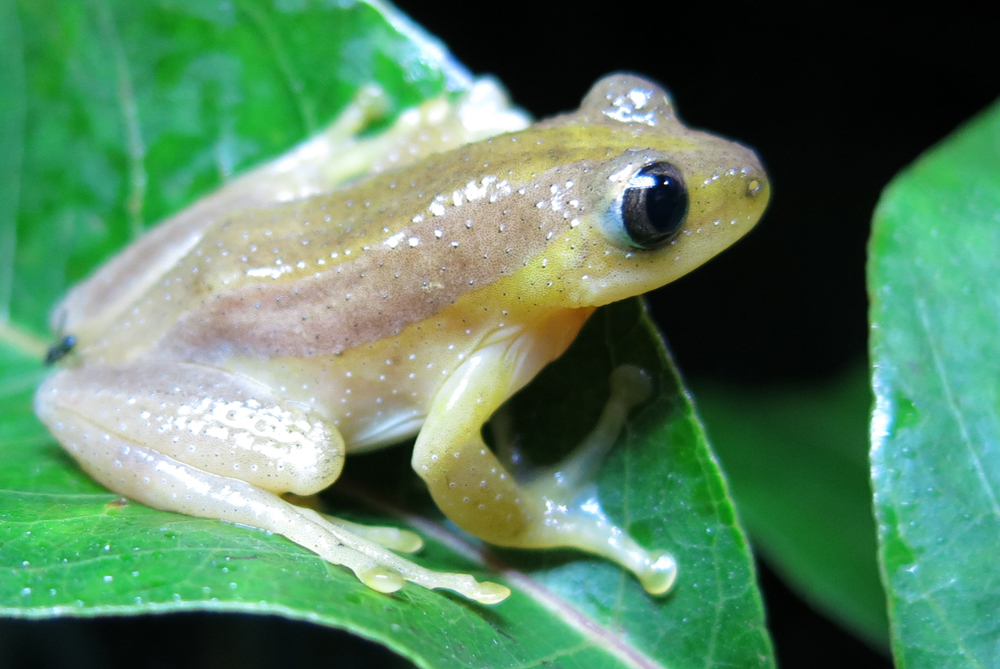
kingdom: Animalia
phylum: Chordata
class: Amphibia
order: Anura
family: Hyperoliidae
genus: Afrixalus
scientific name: Afrixalus fornasini
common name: Fornasini's spiny reed frog
